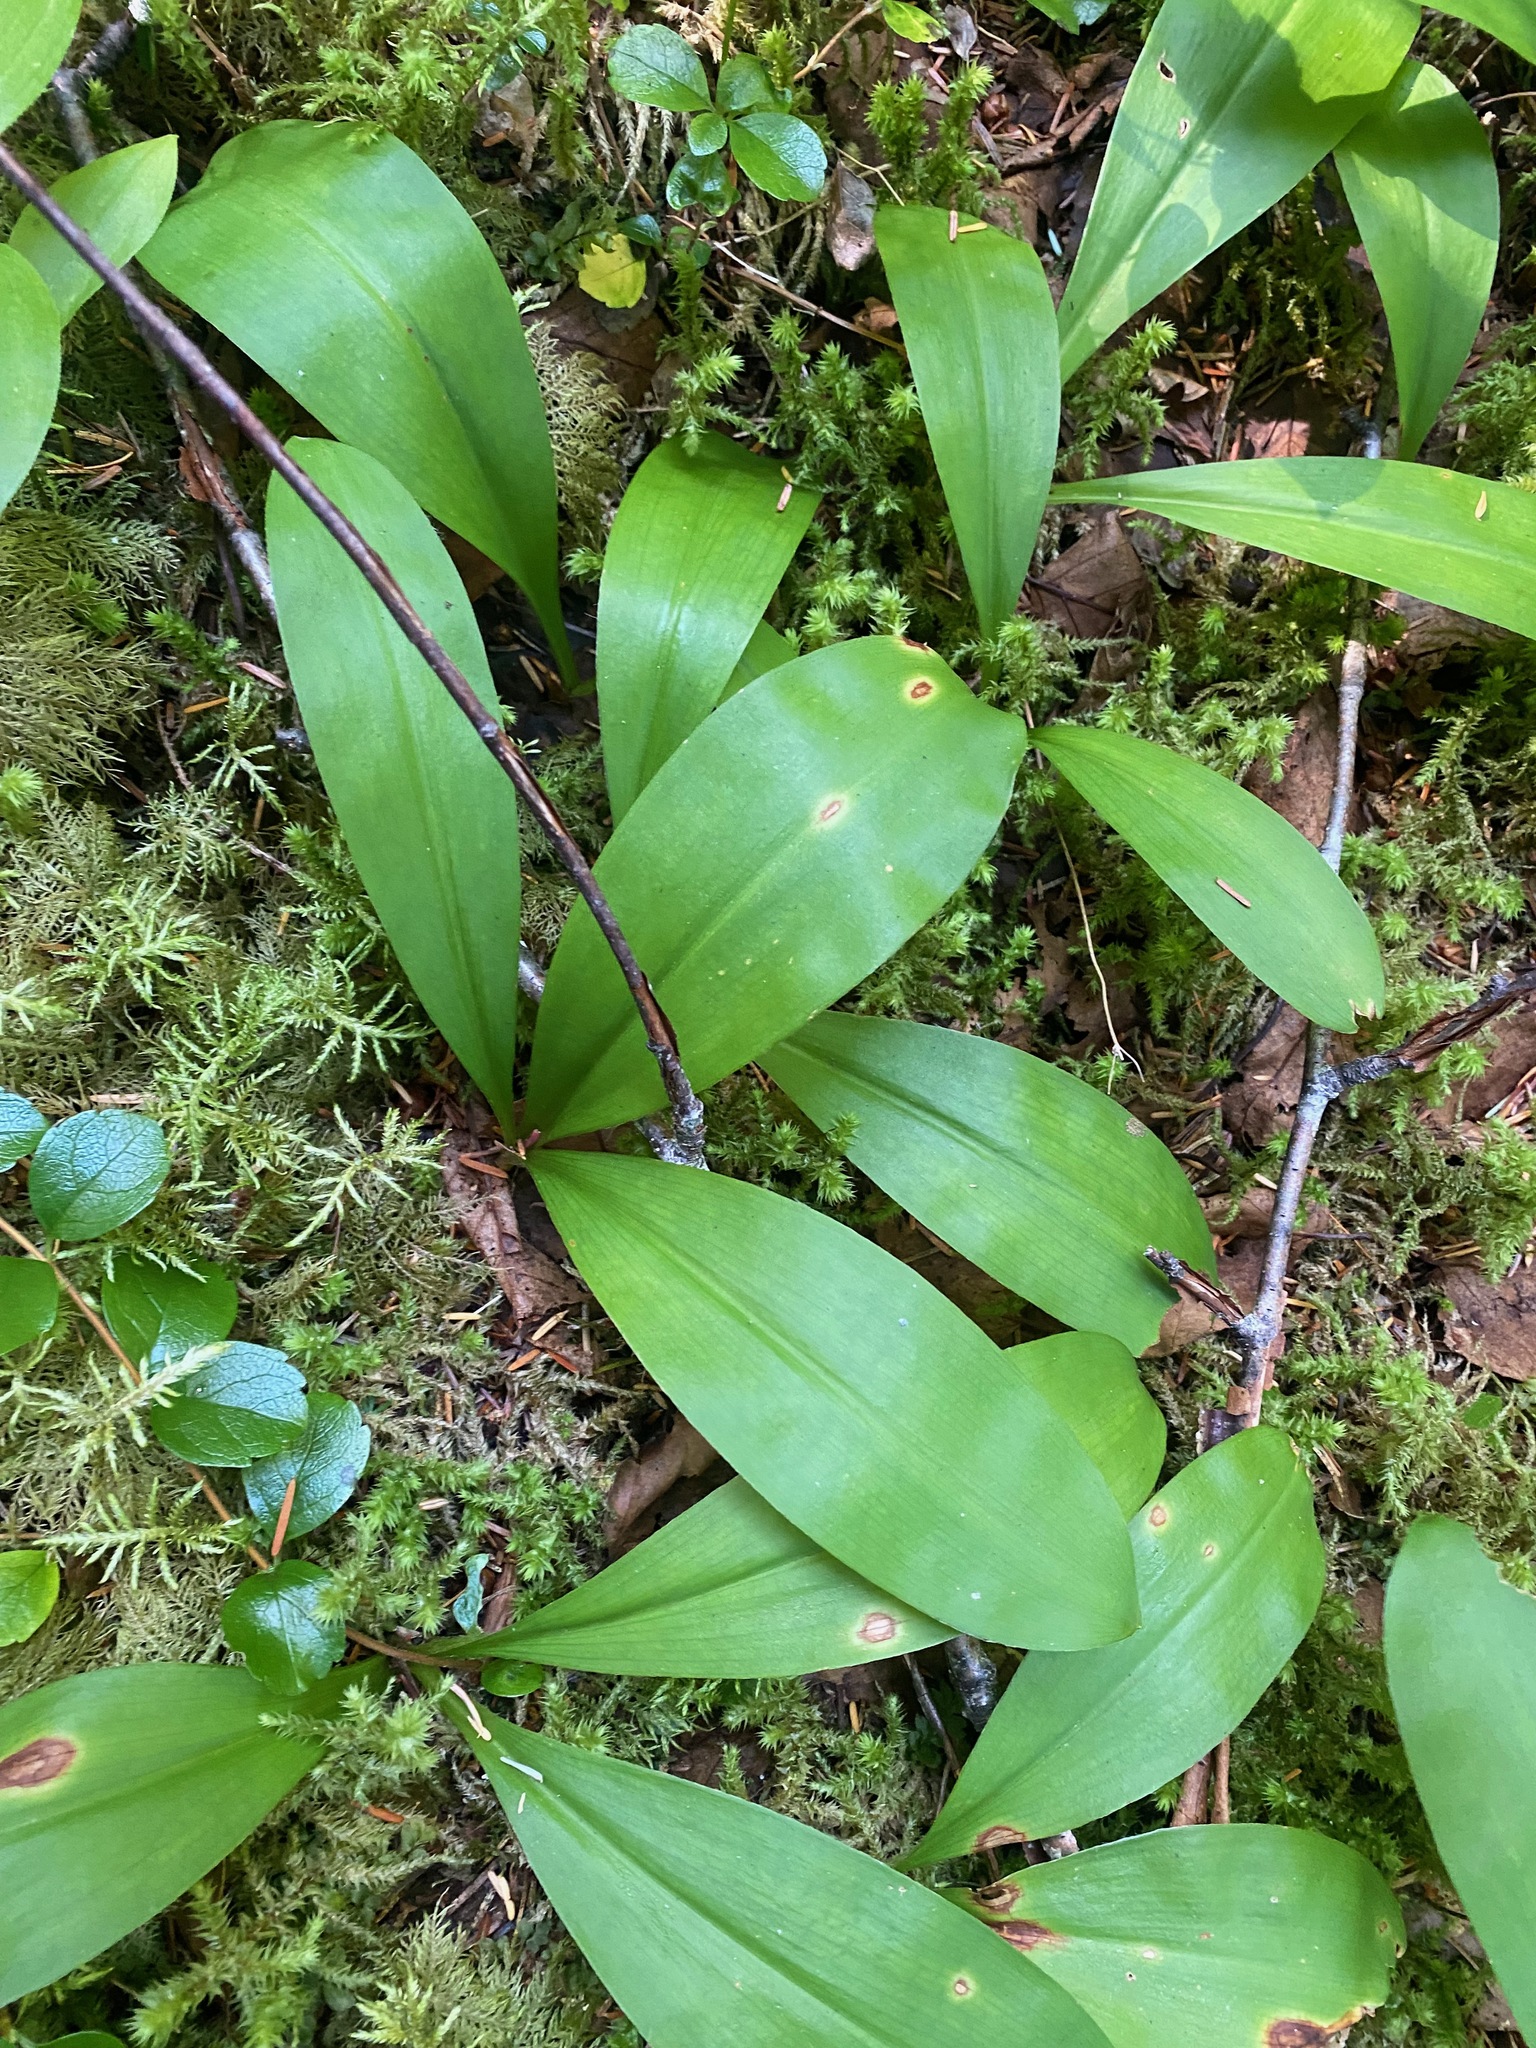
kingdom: Plantae
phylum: Tracheophyta
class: Liliopsida
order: Liliales
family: Liliaceae
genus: Clintonia
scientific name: Clintonia uniflora
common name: Queen's cup
